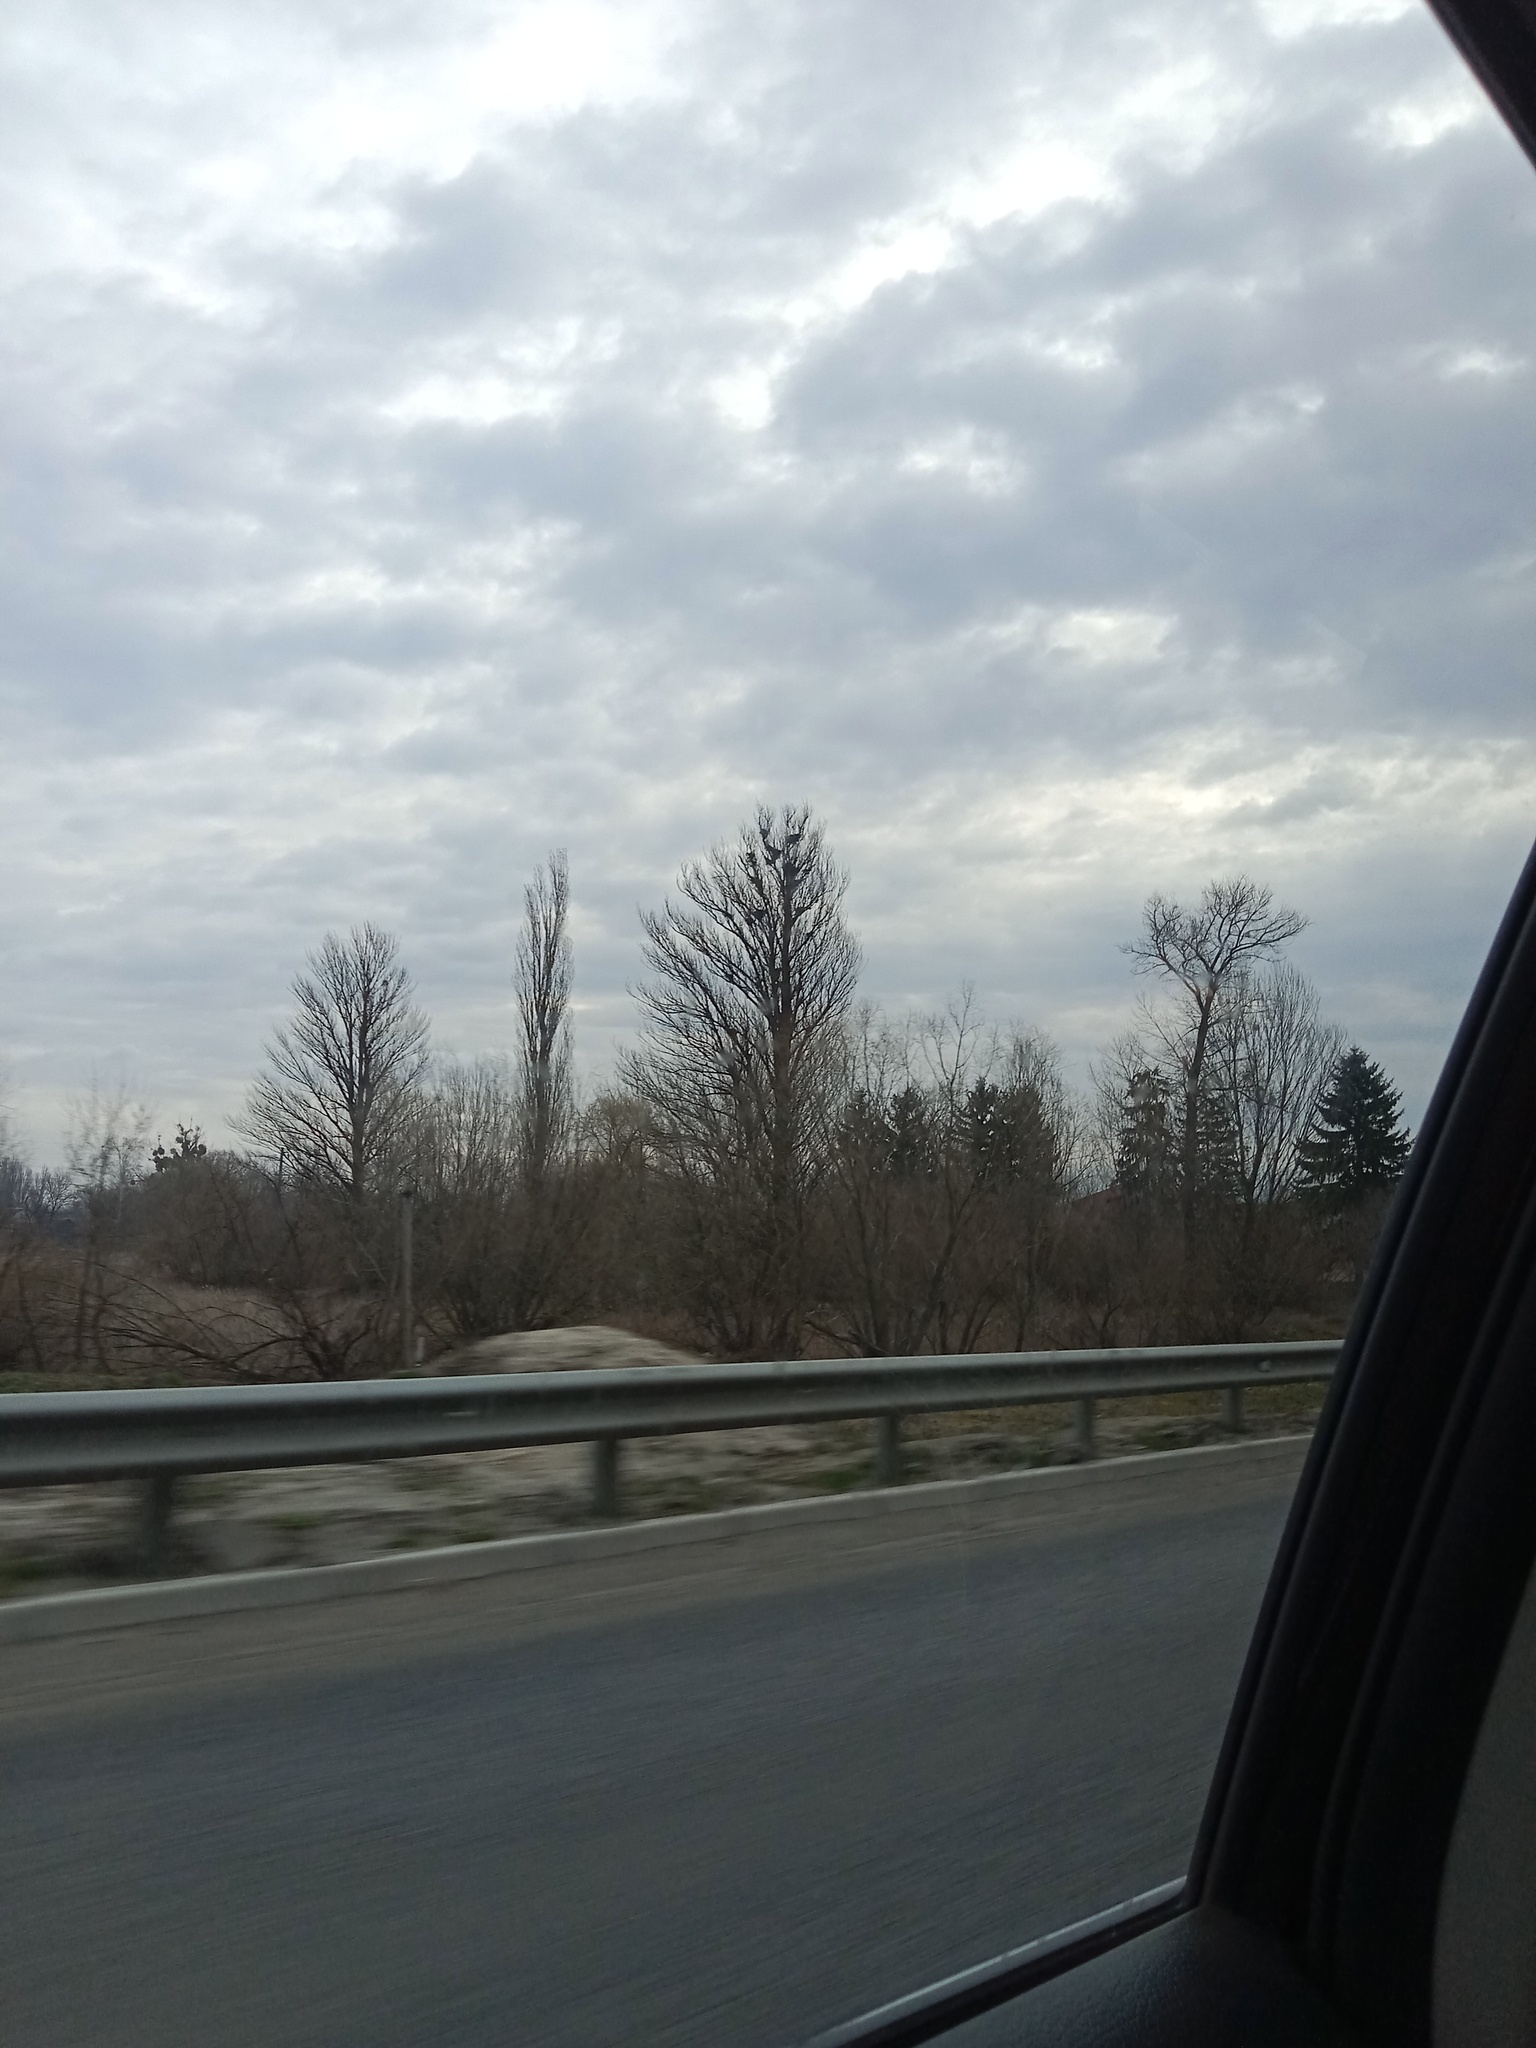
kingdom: Plantae
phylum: Tracheophyta
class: Magnoliopsida
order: Santalales
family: Viscaceae
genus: Viscum
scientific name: Viscum album
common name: Mistletoe
